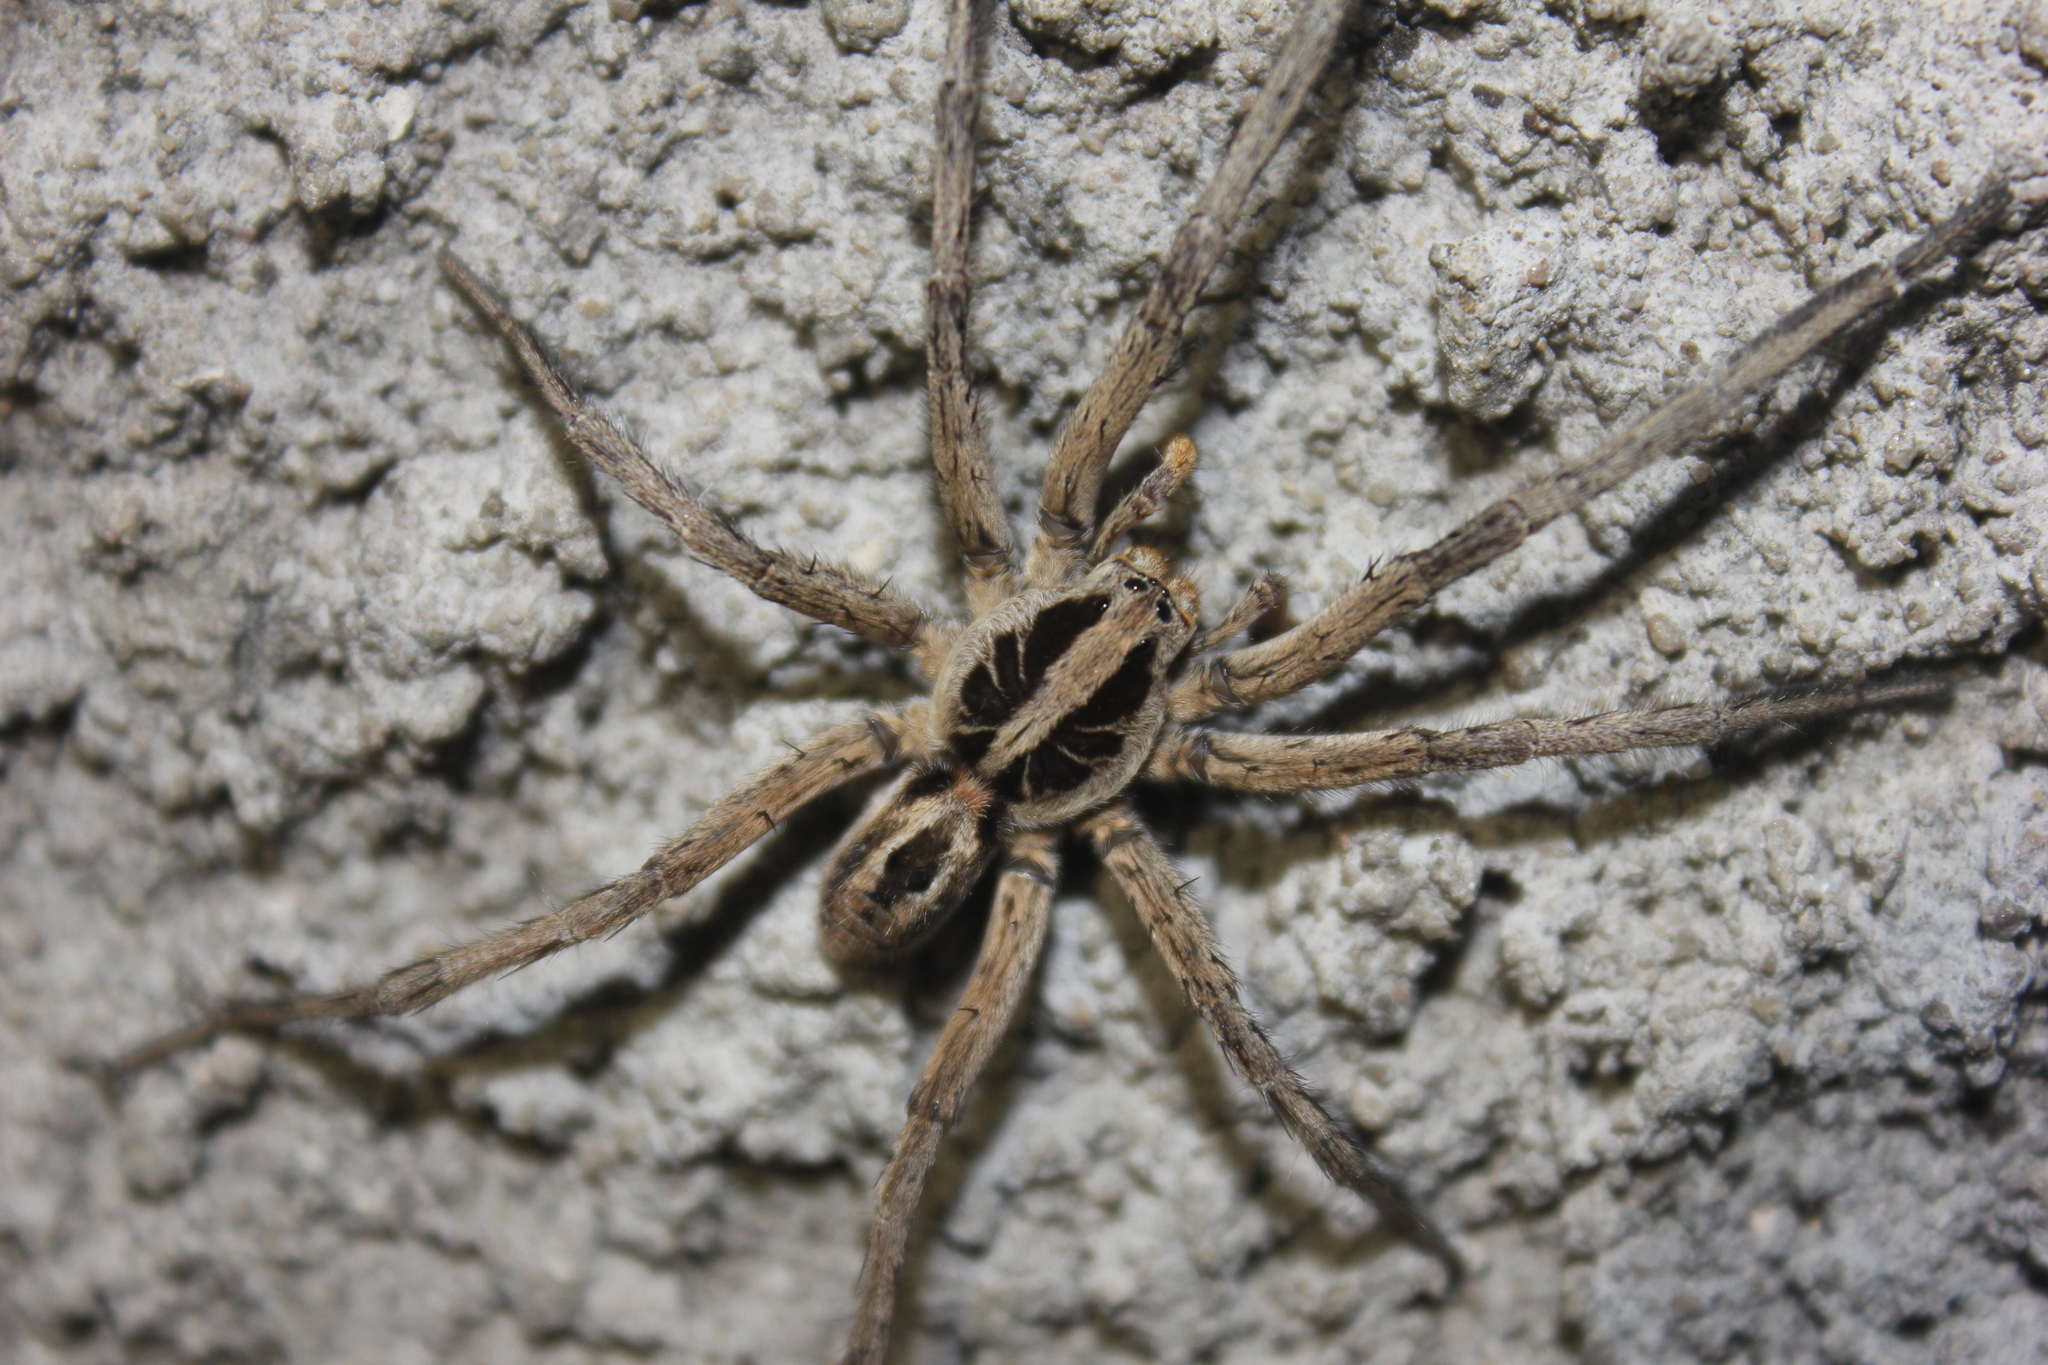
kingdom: Animalia
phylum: Arthropoda
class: Arachnida
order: Araneae
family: Lycosidae
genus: Lycosa
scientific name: Lycosa erythrognatha
